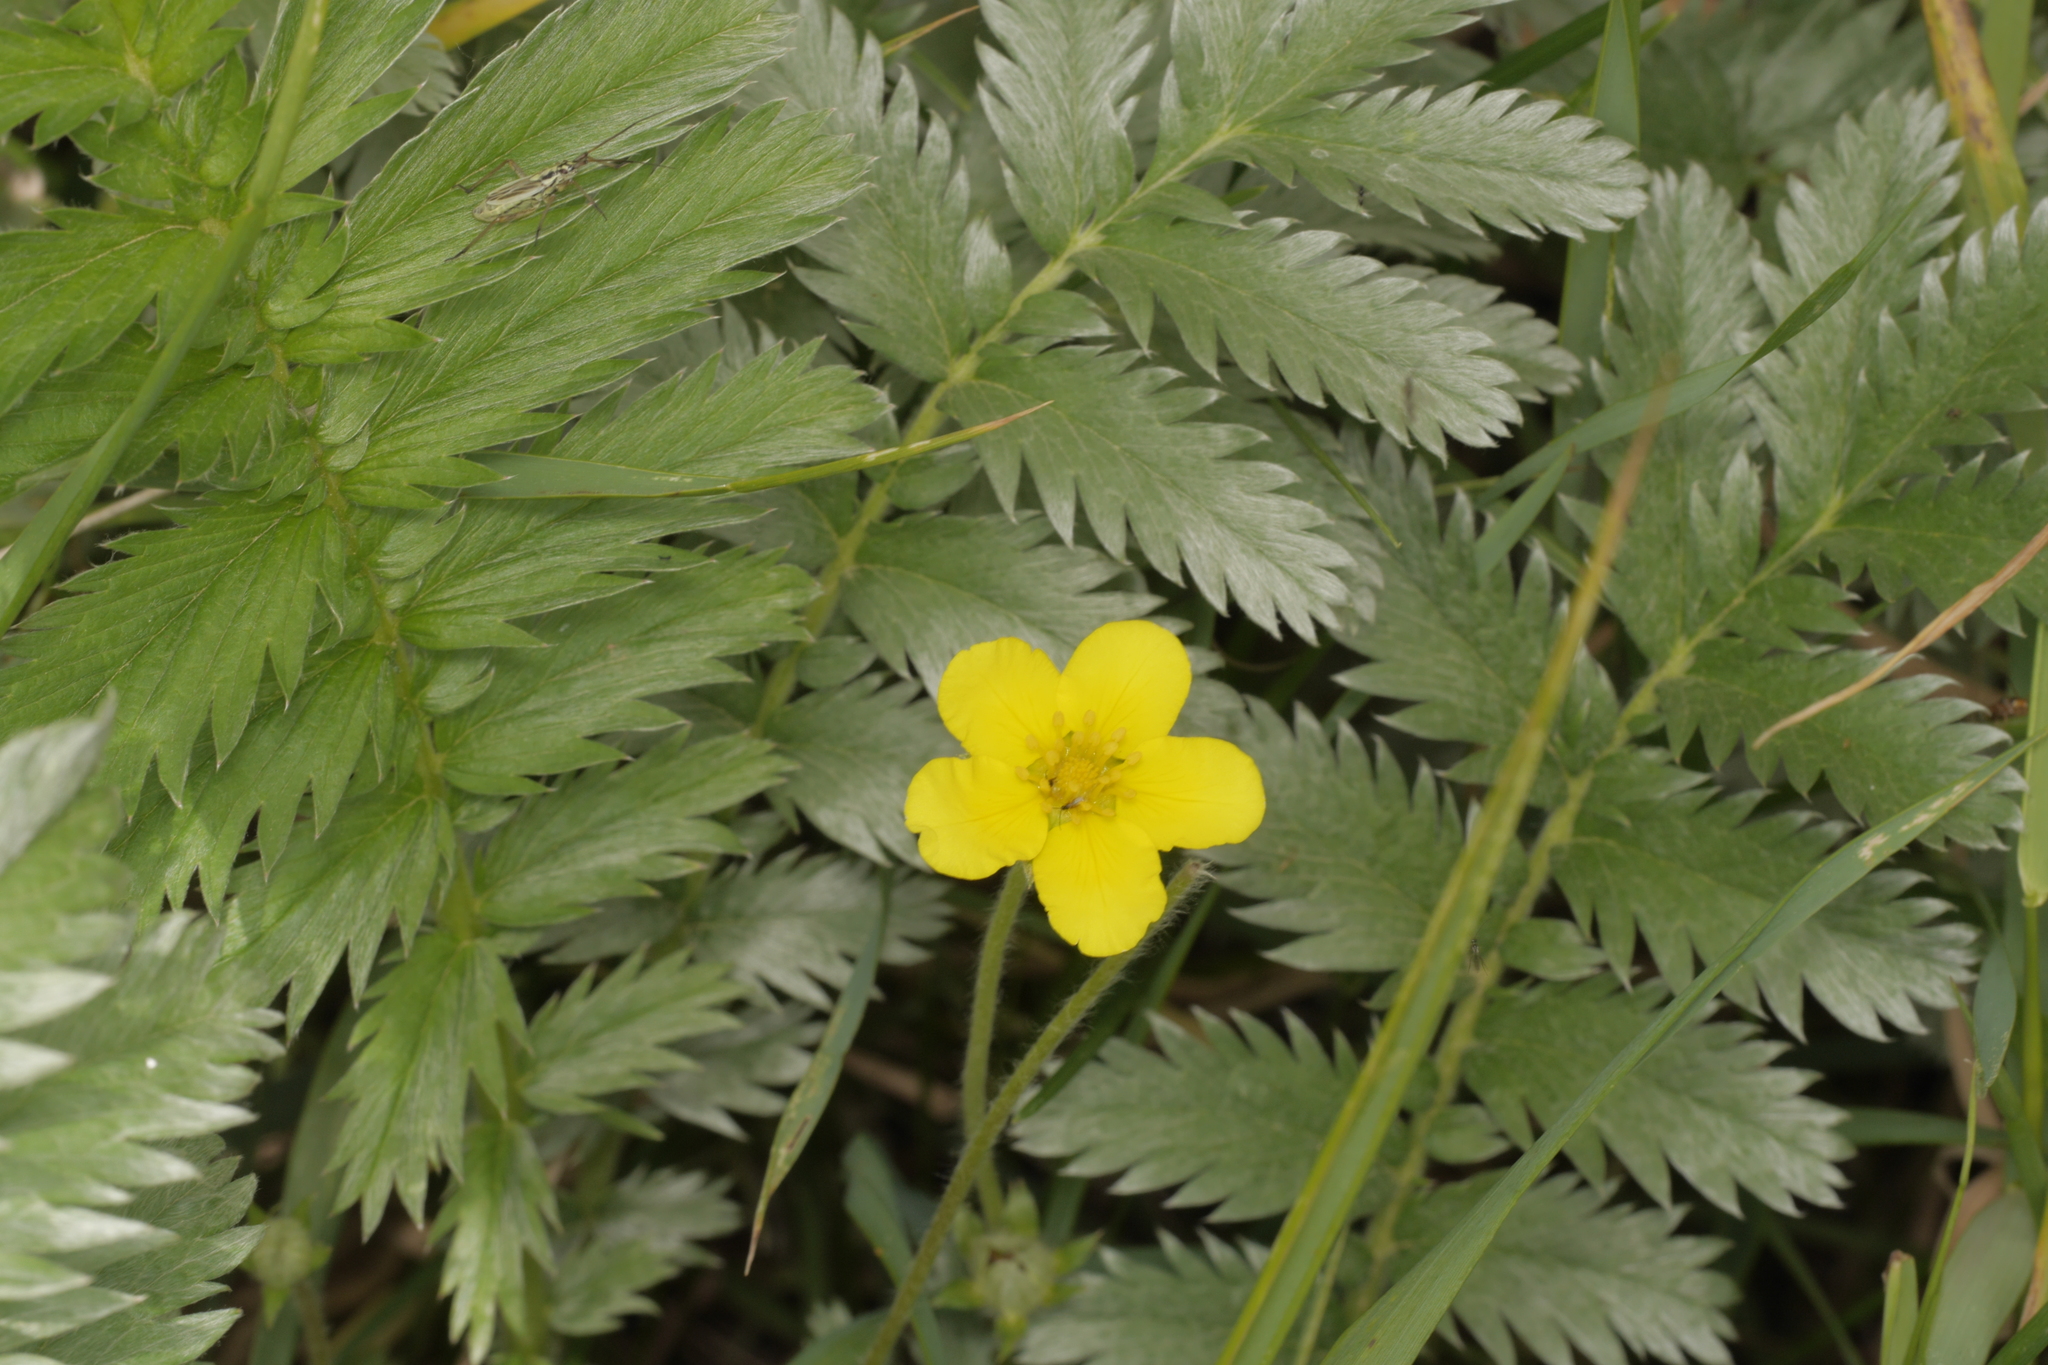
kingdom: Plantae
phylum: Tracheophyta
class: Magnoliopsida
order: Rosales
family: Rosaceae
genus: Argentina
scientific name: Argentina anserina
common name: Common silverweed
